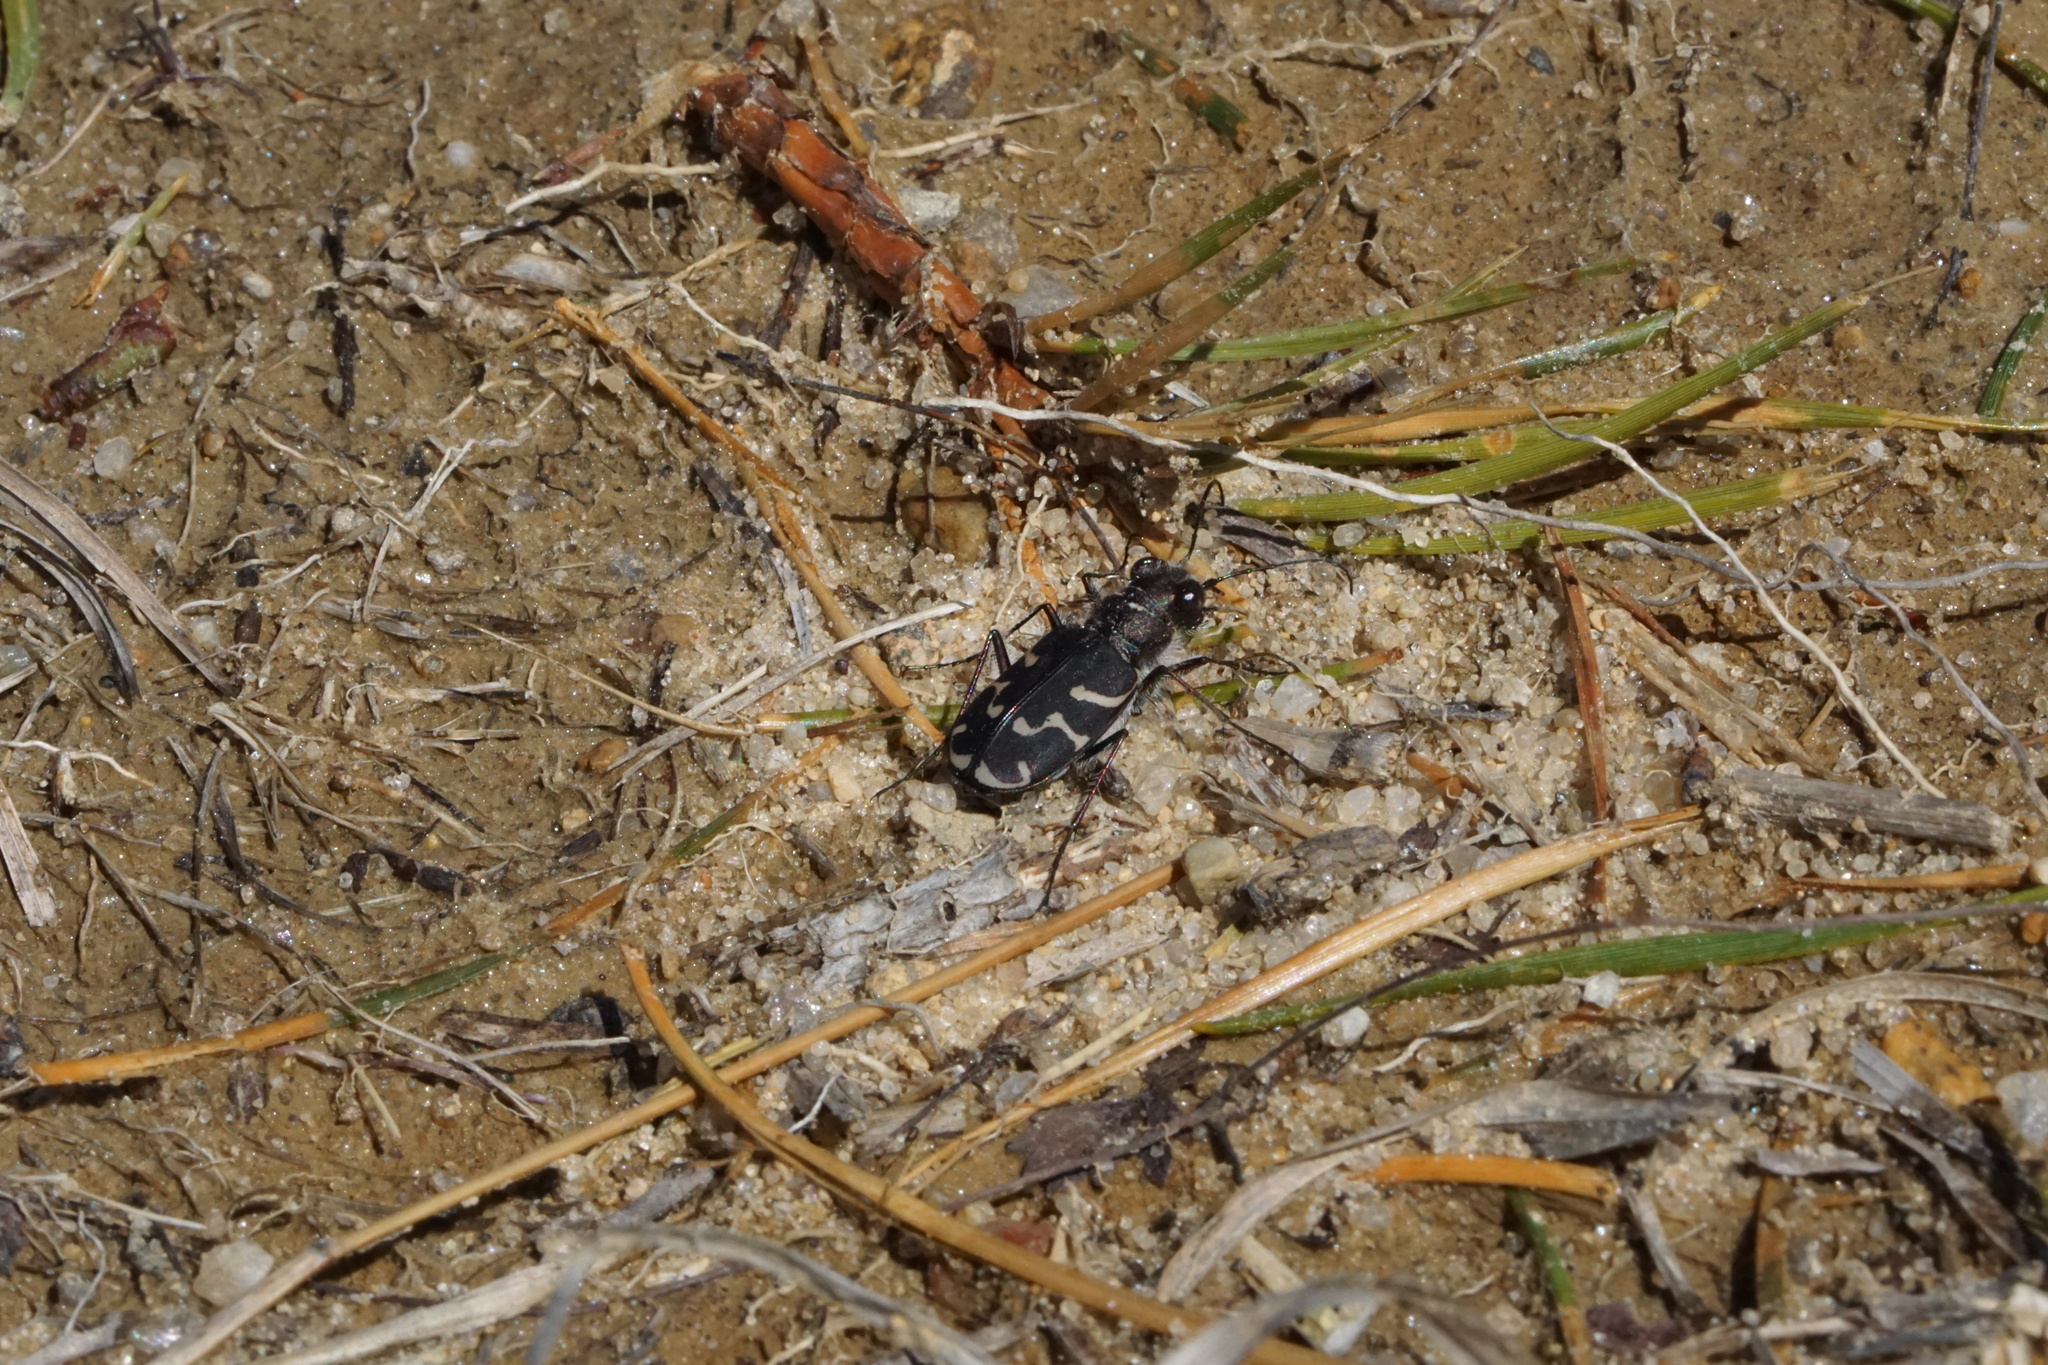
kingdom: Animalia
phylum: Arthropoda
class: Insecta
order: Coleoptera
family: Carabidae
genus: Cicindela
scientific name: Cicindela tranquebarica
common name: Oblique-lined tiger beetle
